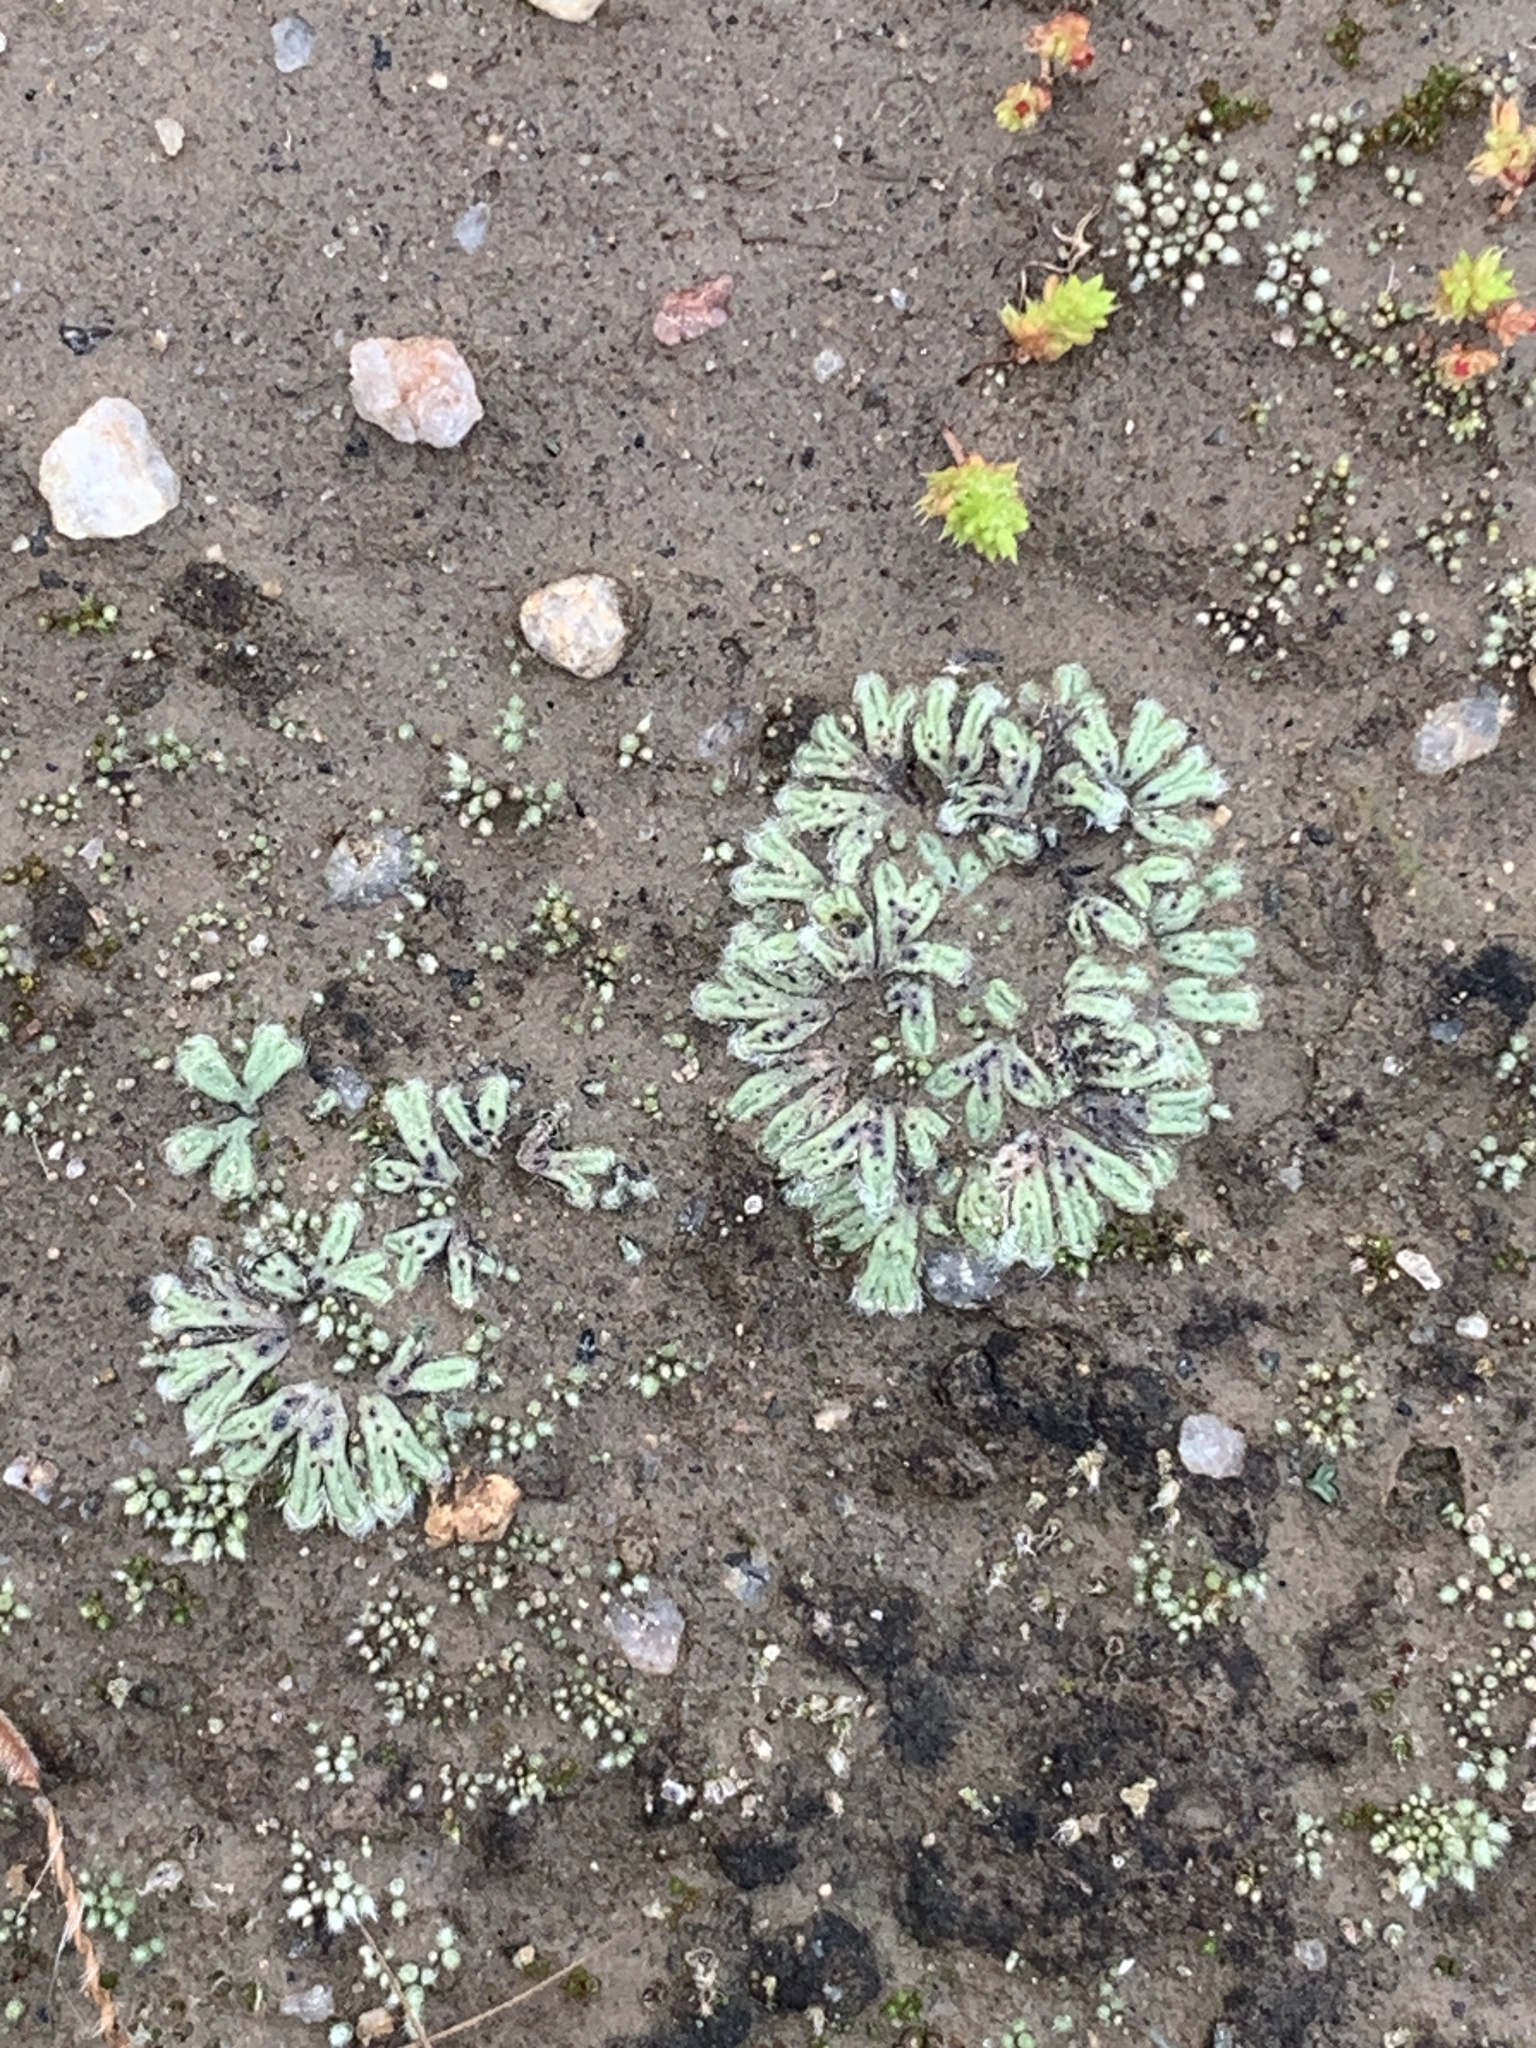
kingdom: Plantae
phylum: Marchantiophyta
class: Marchantiopsida
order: Marchantiales
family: Ricciaceae
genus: Riccia
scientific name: Riccia trichocarpa
